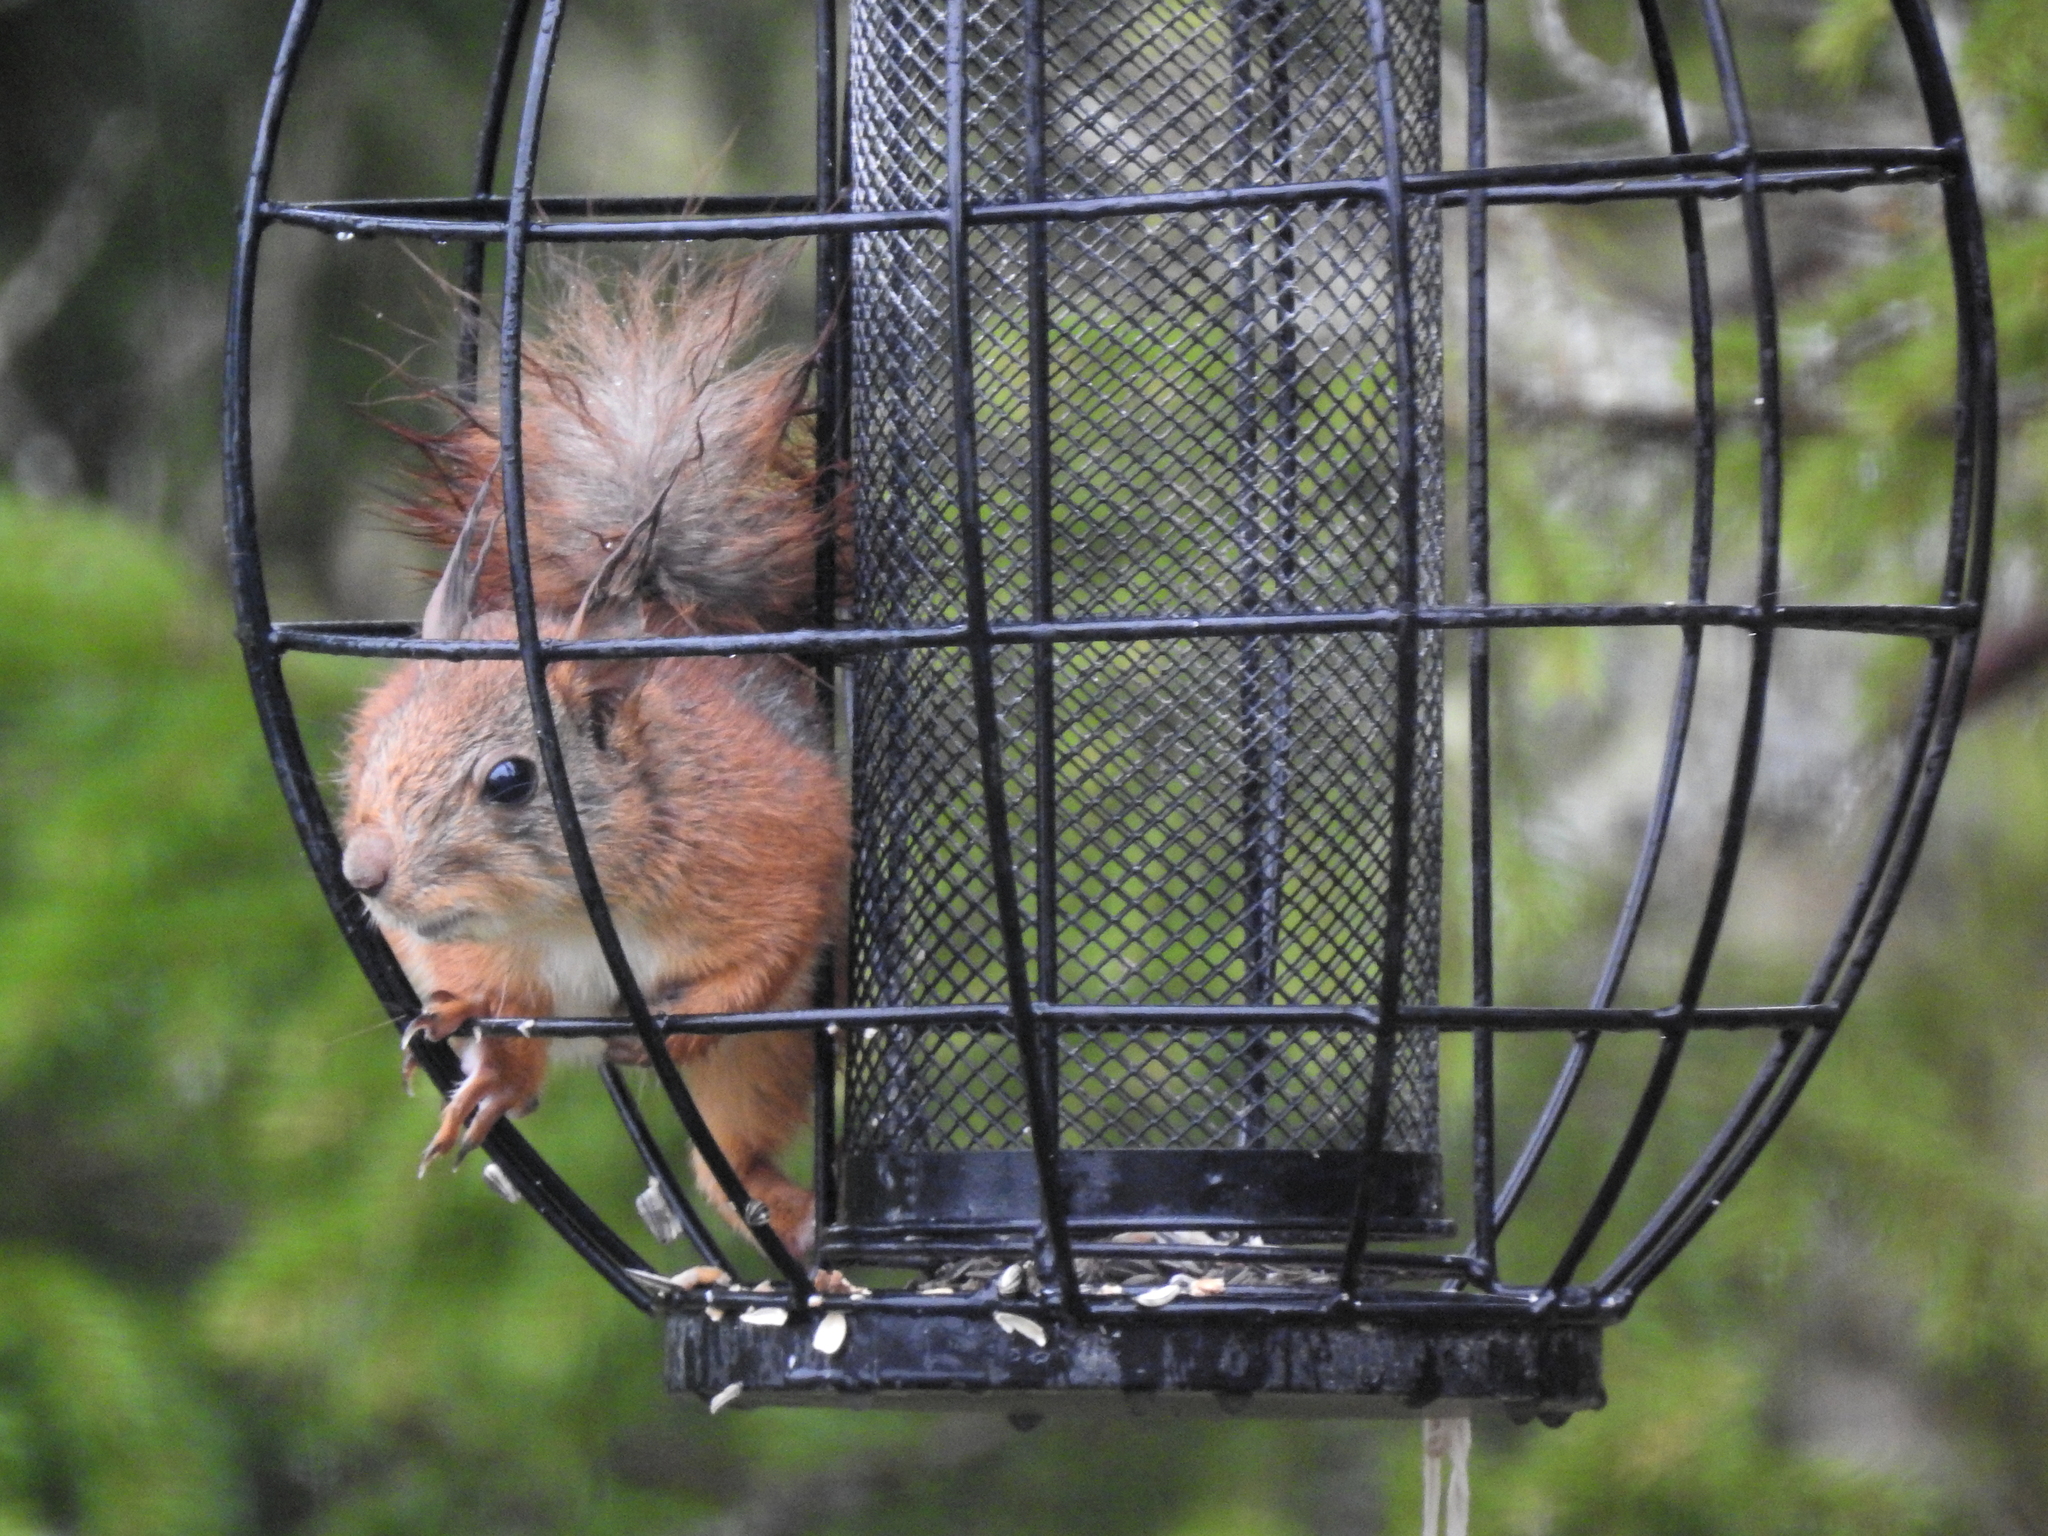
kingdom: Animalia
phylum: Chordata
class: Mammalia
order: Rodentia
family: Sciuridae
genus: Sciurus
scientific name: Sciurus vulgaris
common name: Eurasian red squirrel
